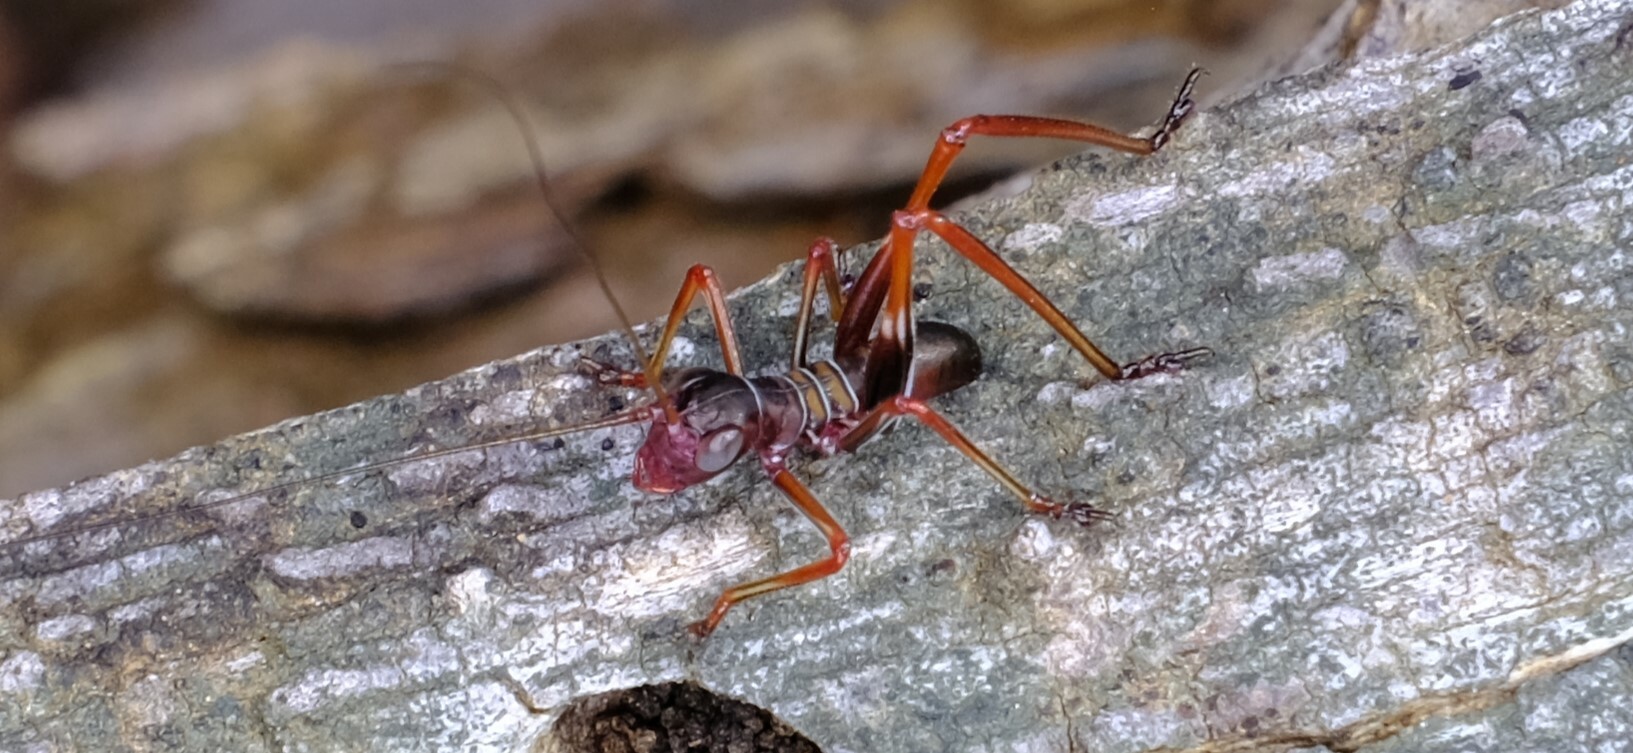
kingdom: Animalia
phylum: Arthropoda
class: Insecta
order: Orthoptera
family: Tettigoniidae
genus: Torbia
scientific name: Torbia viridissima
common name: Non-predaceous gum leaf katydid
